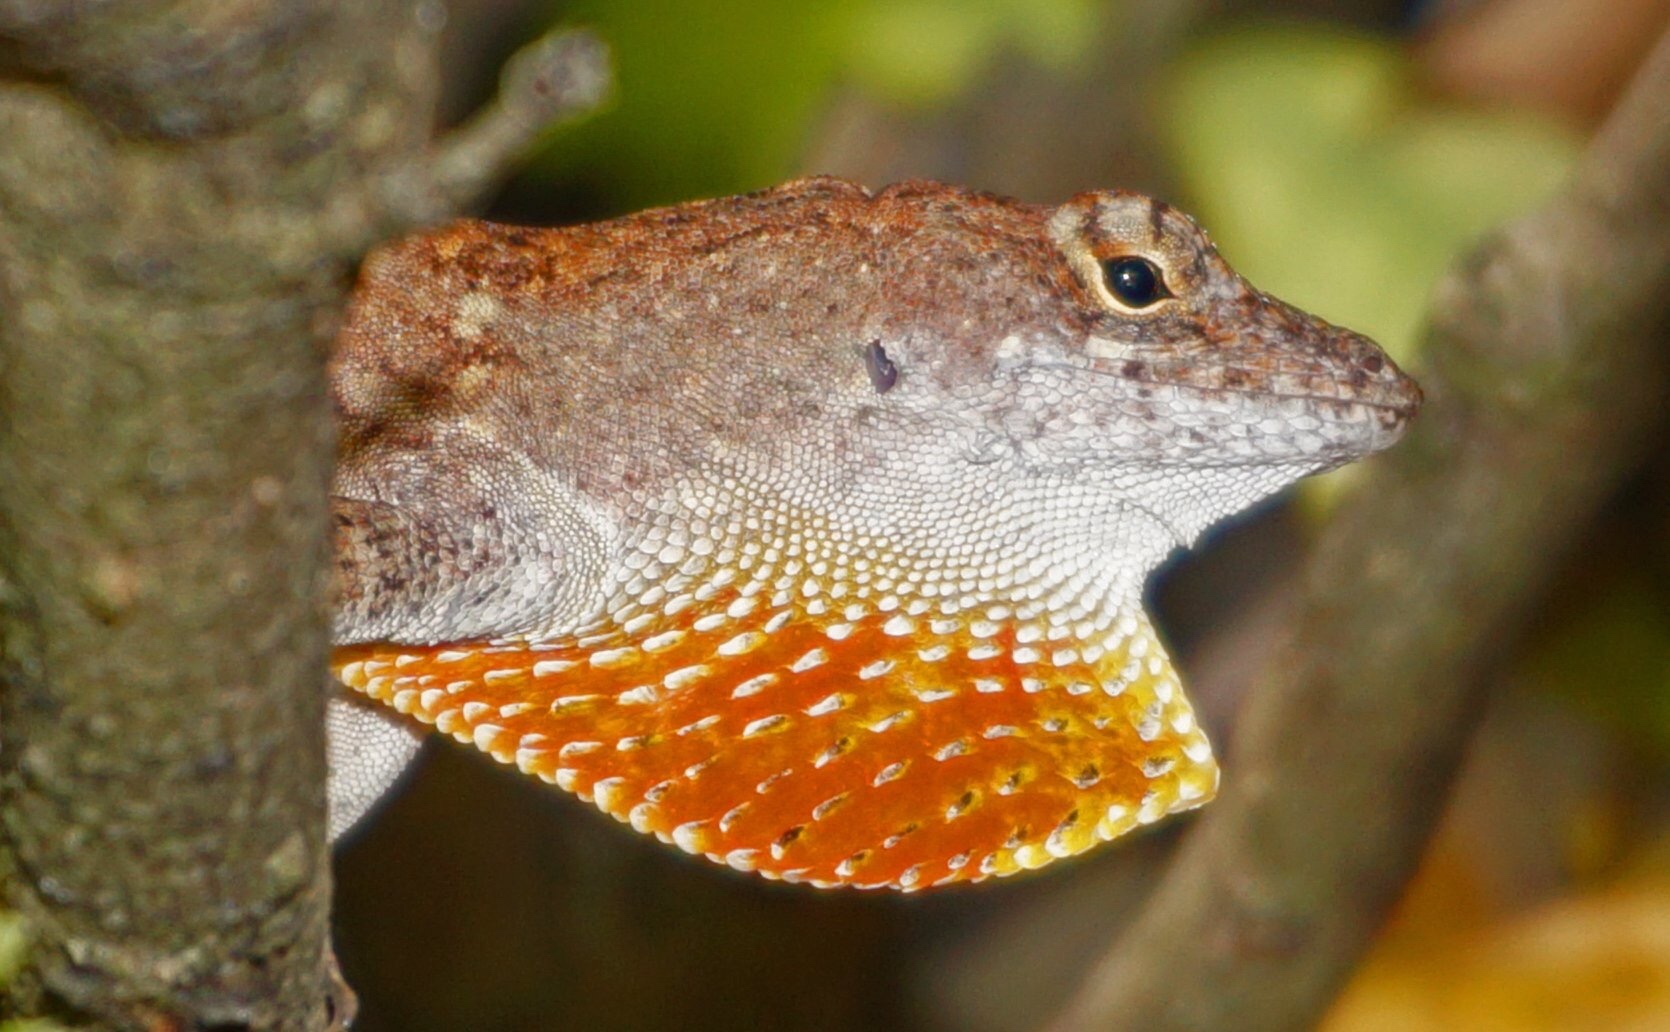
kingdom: Animalia
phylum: Chordata
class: Squamata
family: Dactyloidae
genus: Anolis
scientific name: Anolis sagrei
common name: Brown anole
